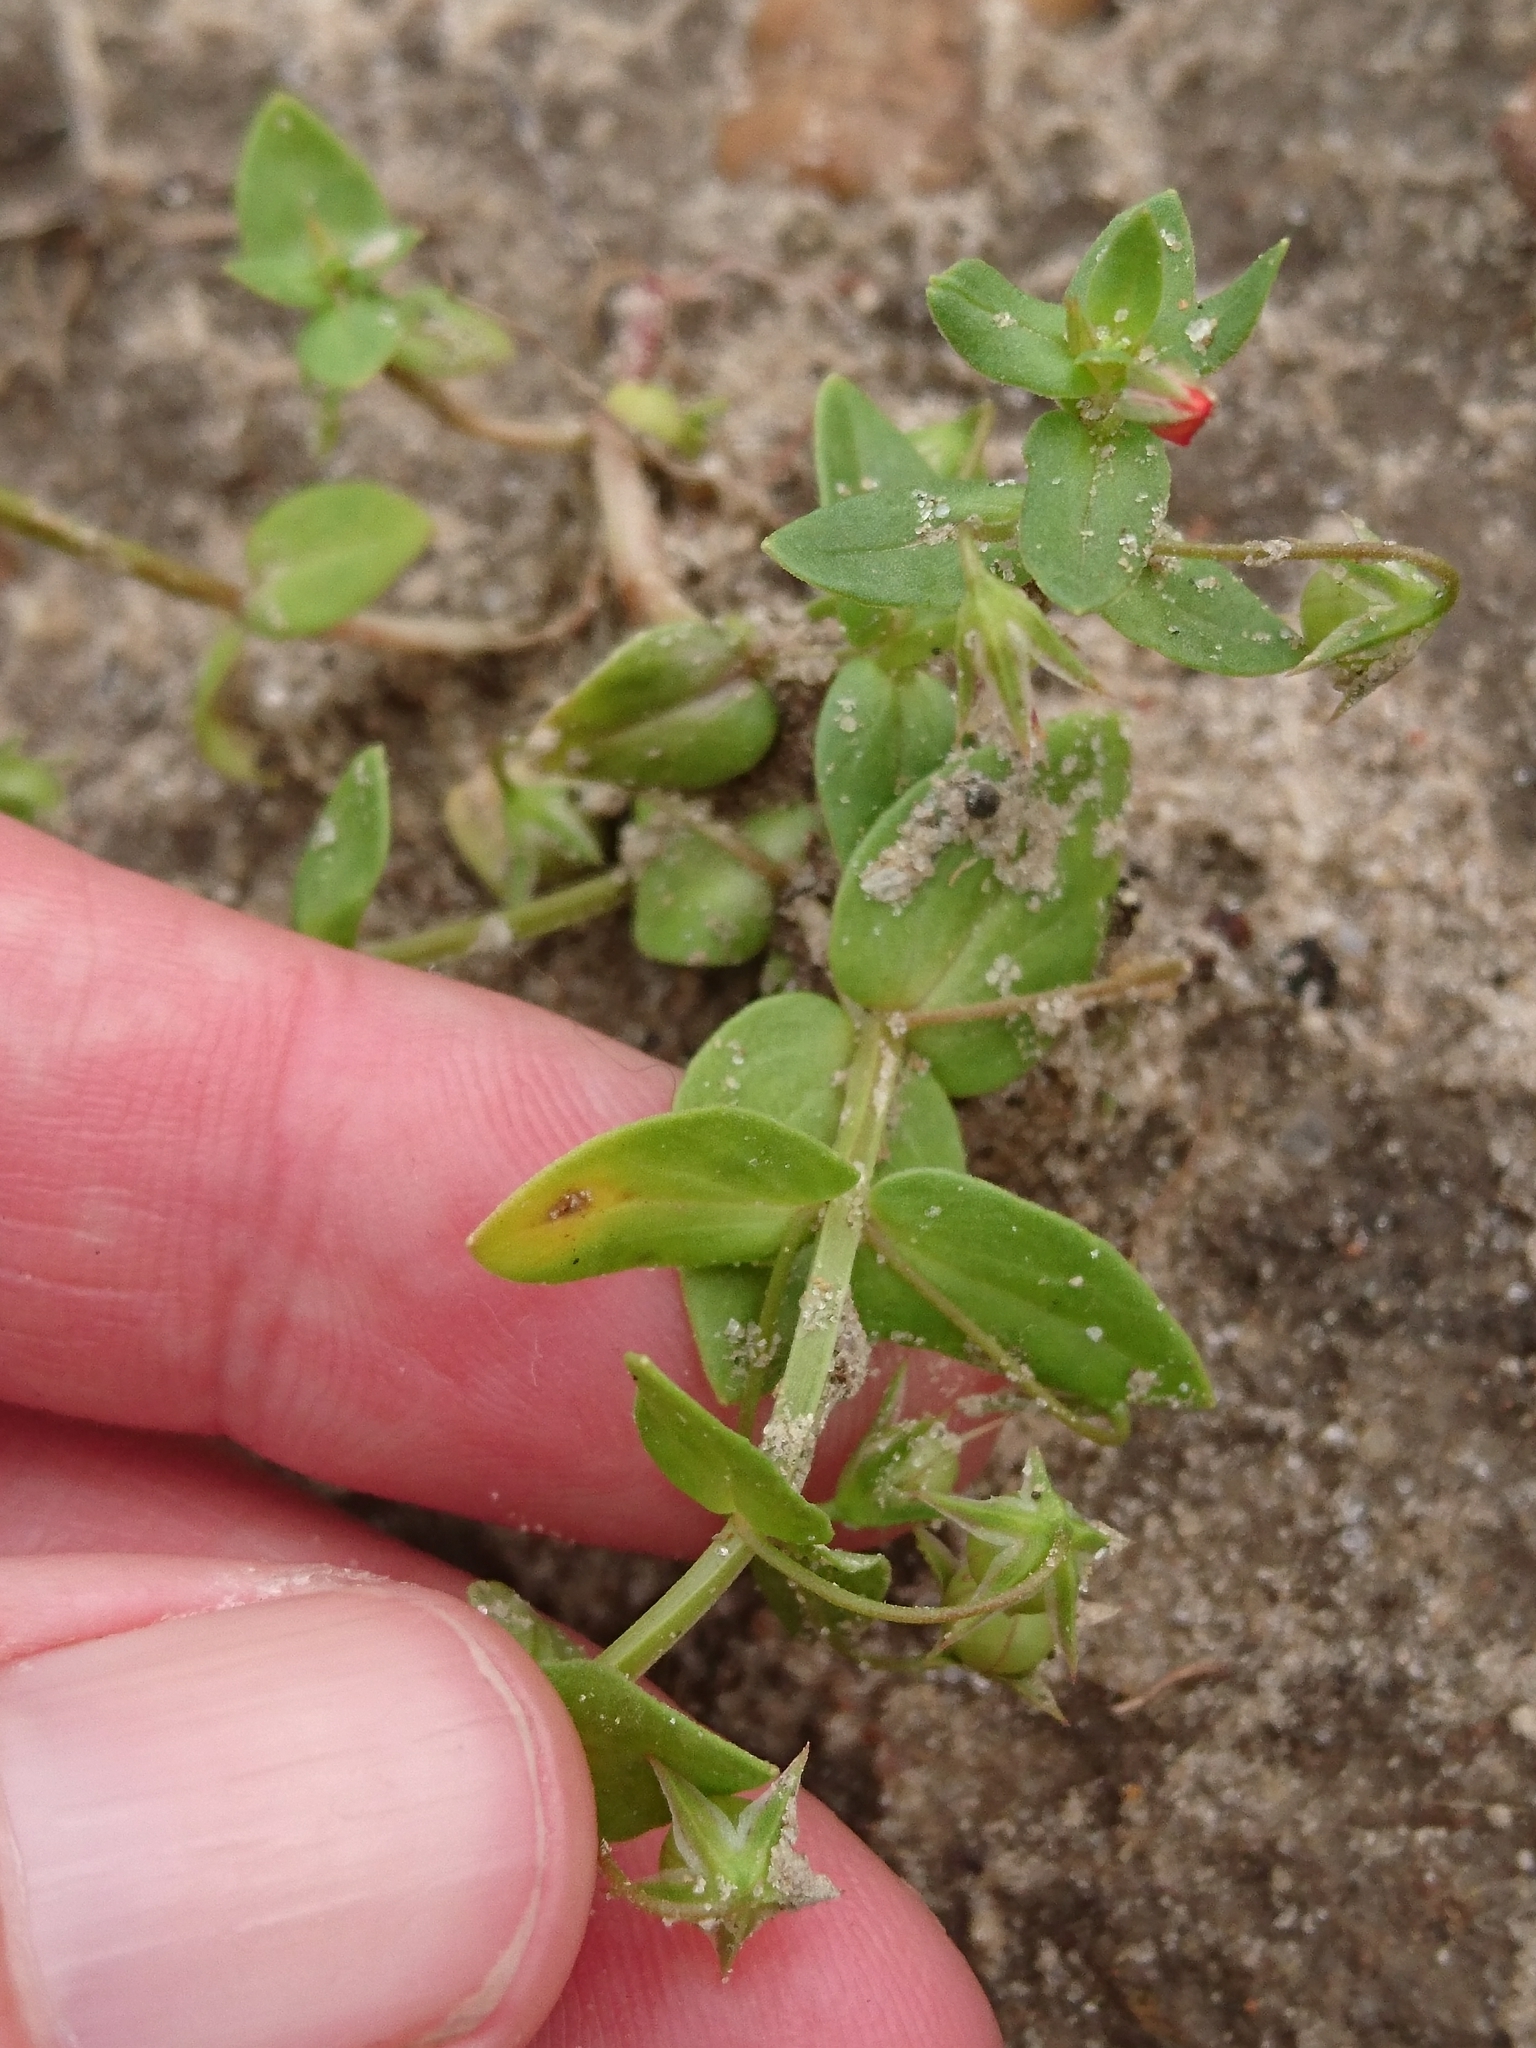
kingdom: Plantae
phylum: Tracheophyta
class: Magnoliopsida
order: Ericales
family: Primulaceae
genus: Lysimachia
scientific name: Lysimachia arvensis
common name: Scarlet pimpernel
